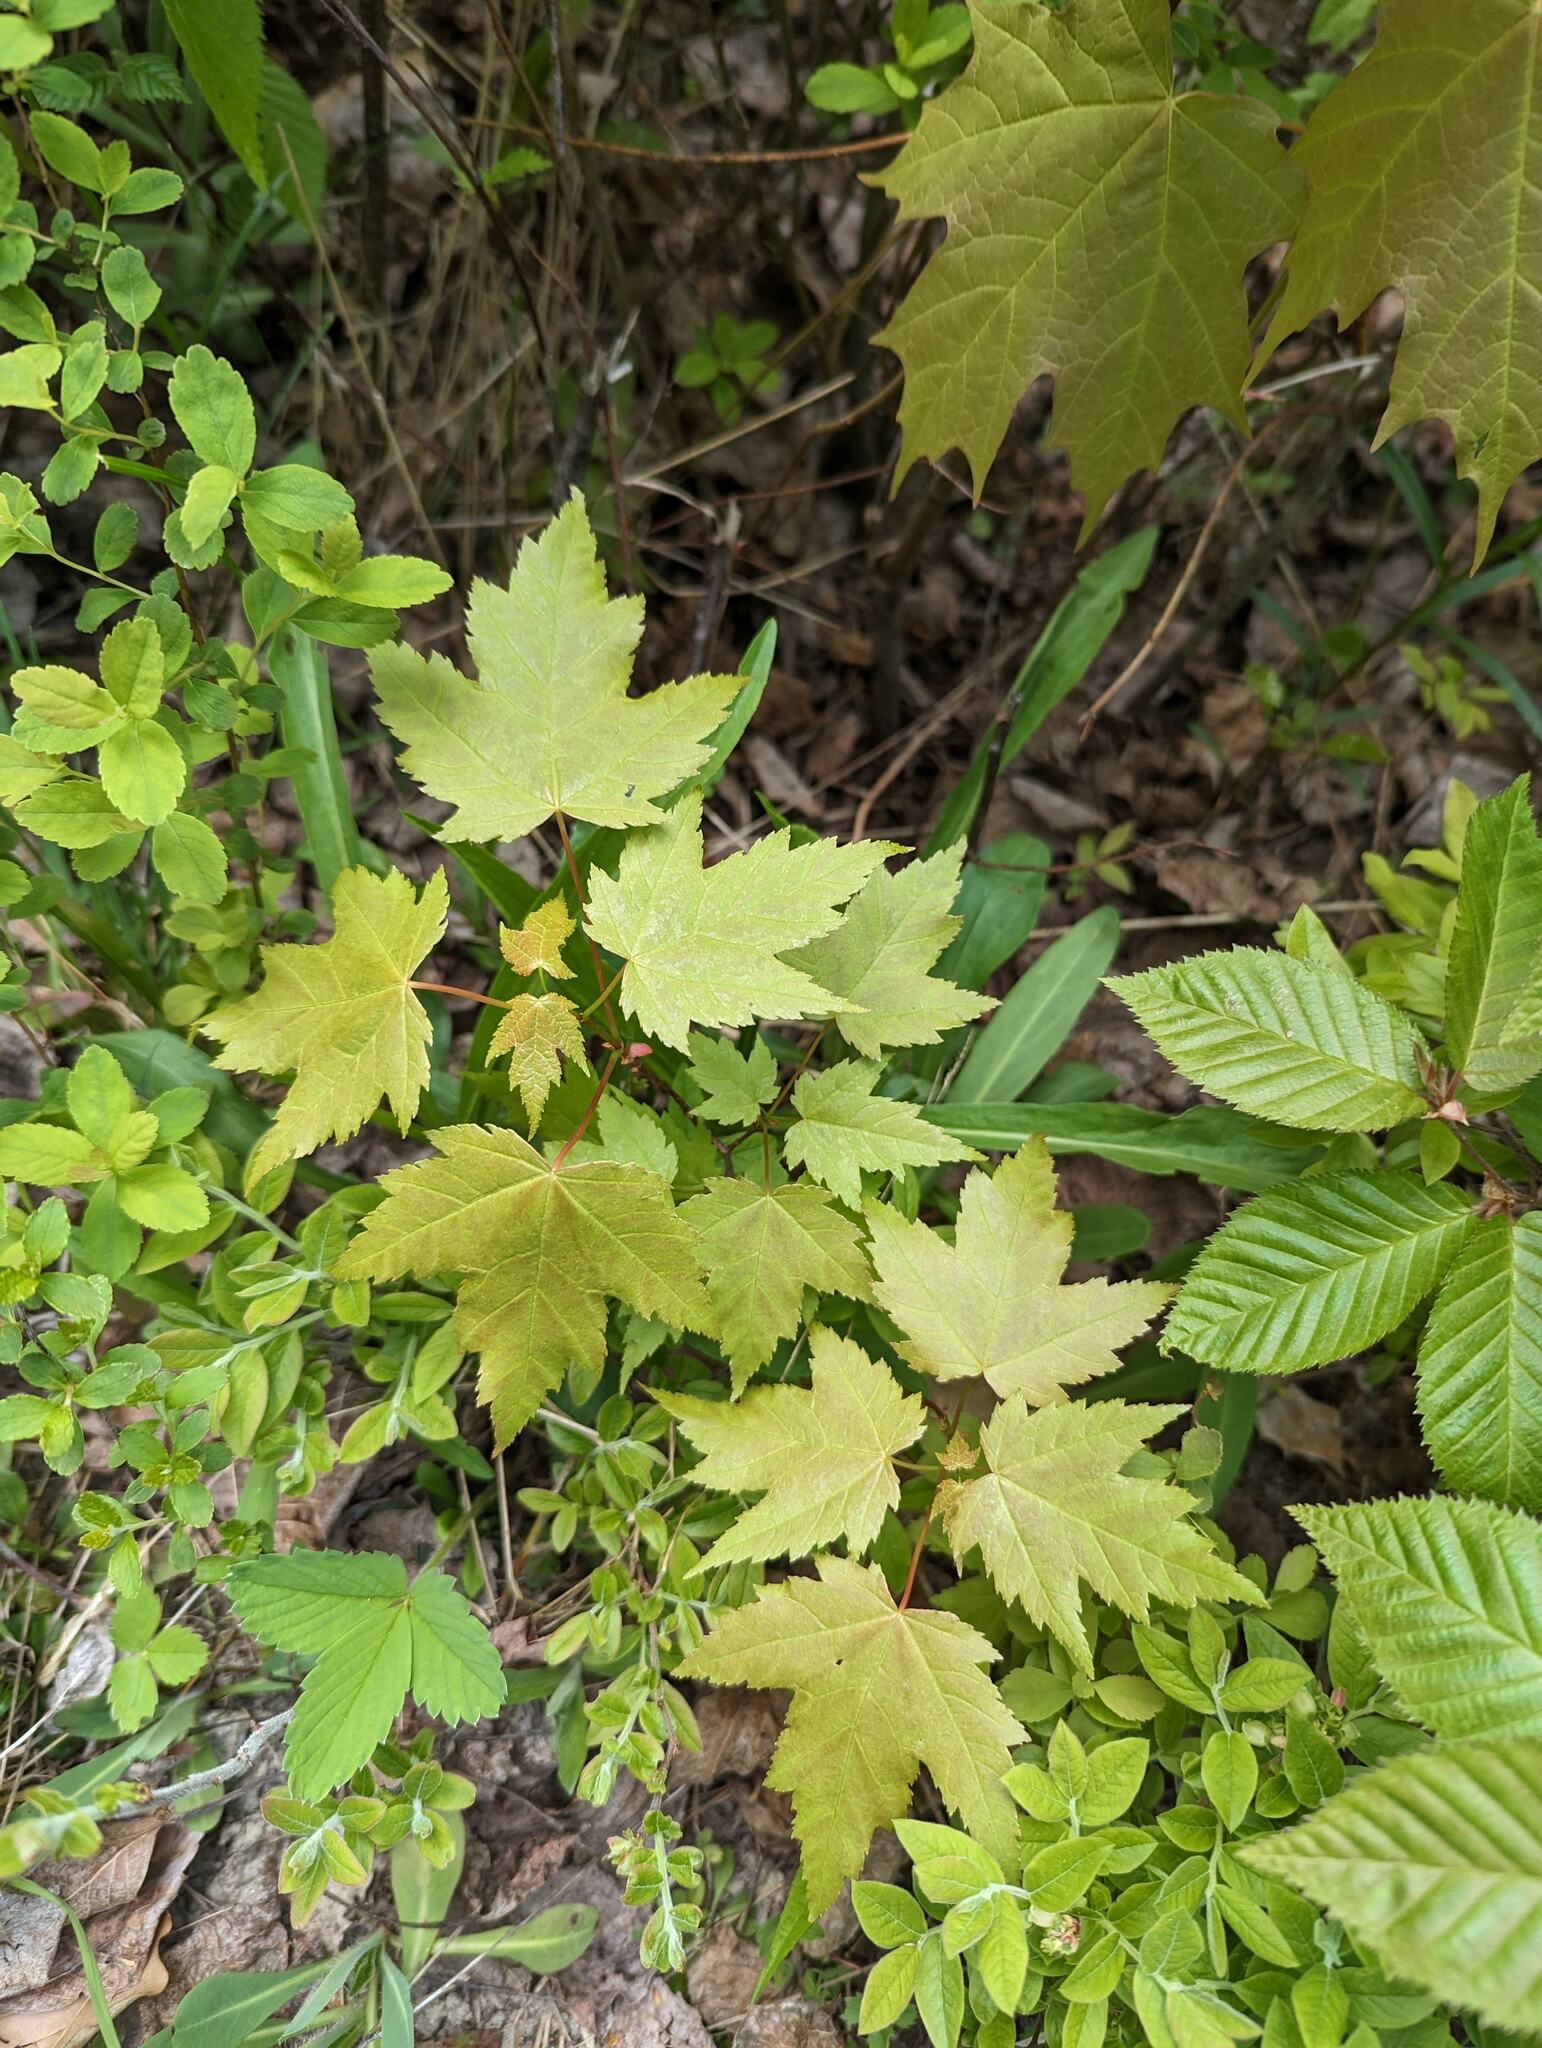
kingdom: Plantae
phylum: Tracheophyta
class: Magnoliopsida
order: Sapindales
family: Sapindaceae
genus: Acer
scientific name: Acer rubrum
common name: Red maple
